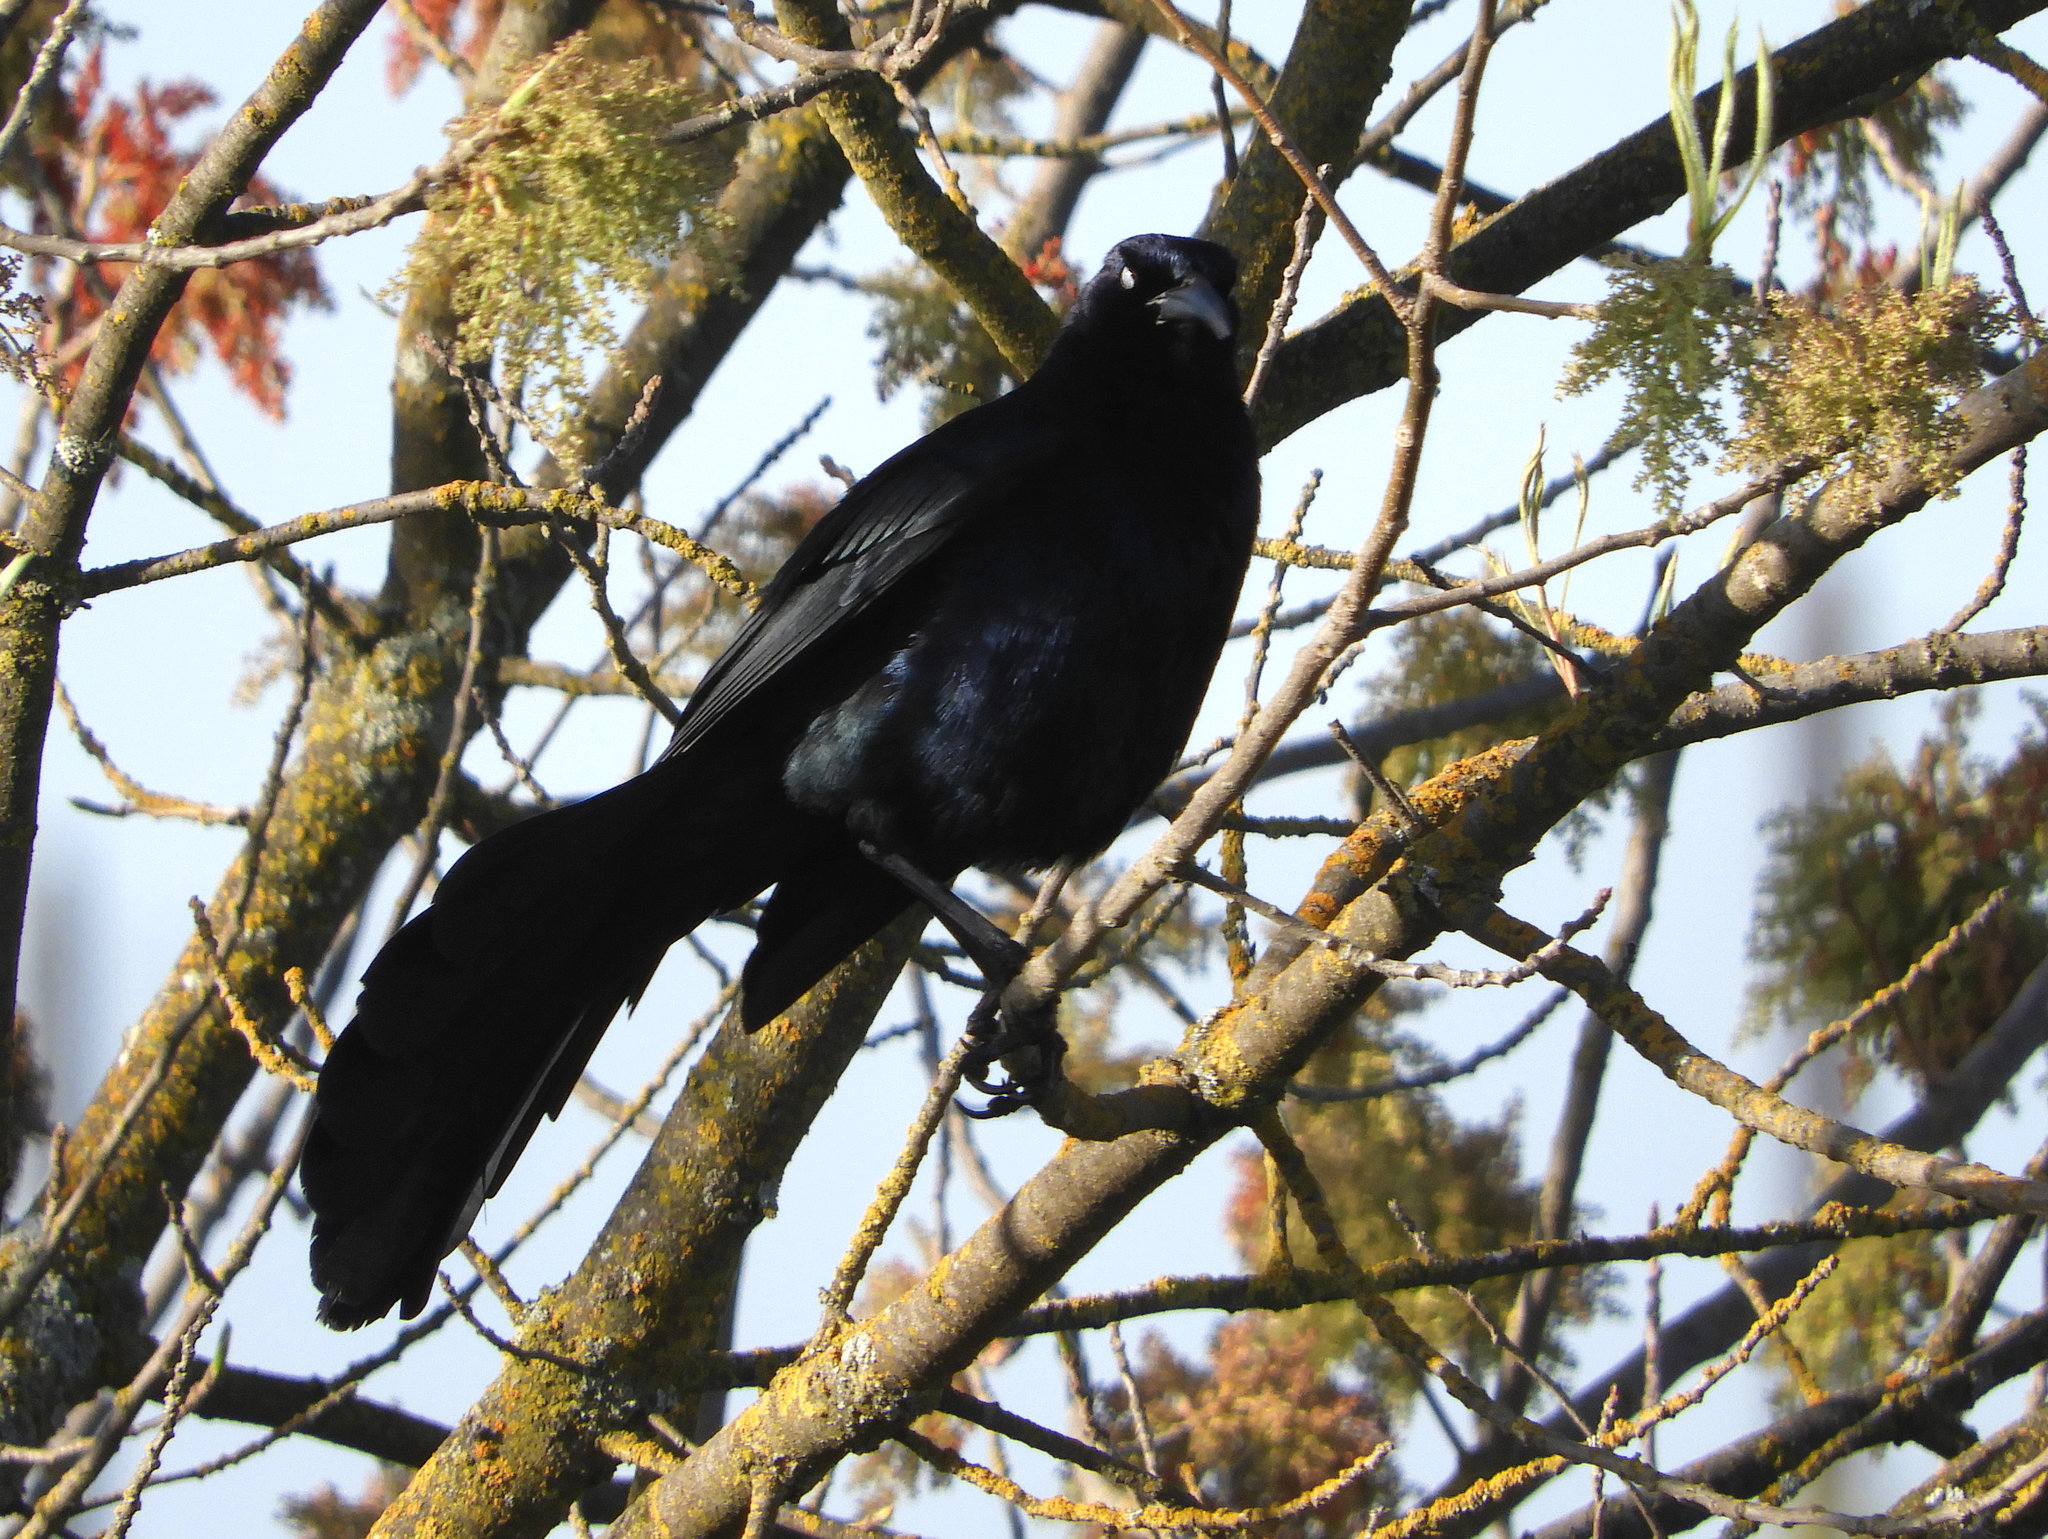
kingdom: Animalia
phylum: Chordata
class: Aves
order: Passeriformes
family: Icteridae
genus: Quiscalus
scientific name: Quiscalus mexicanus
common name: Great-tailed grackle
